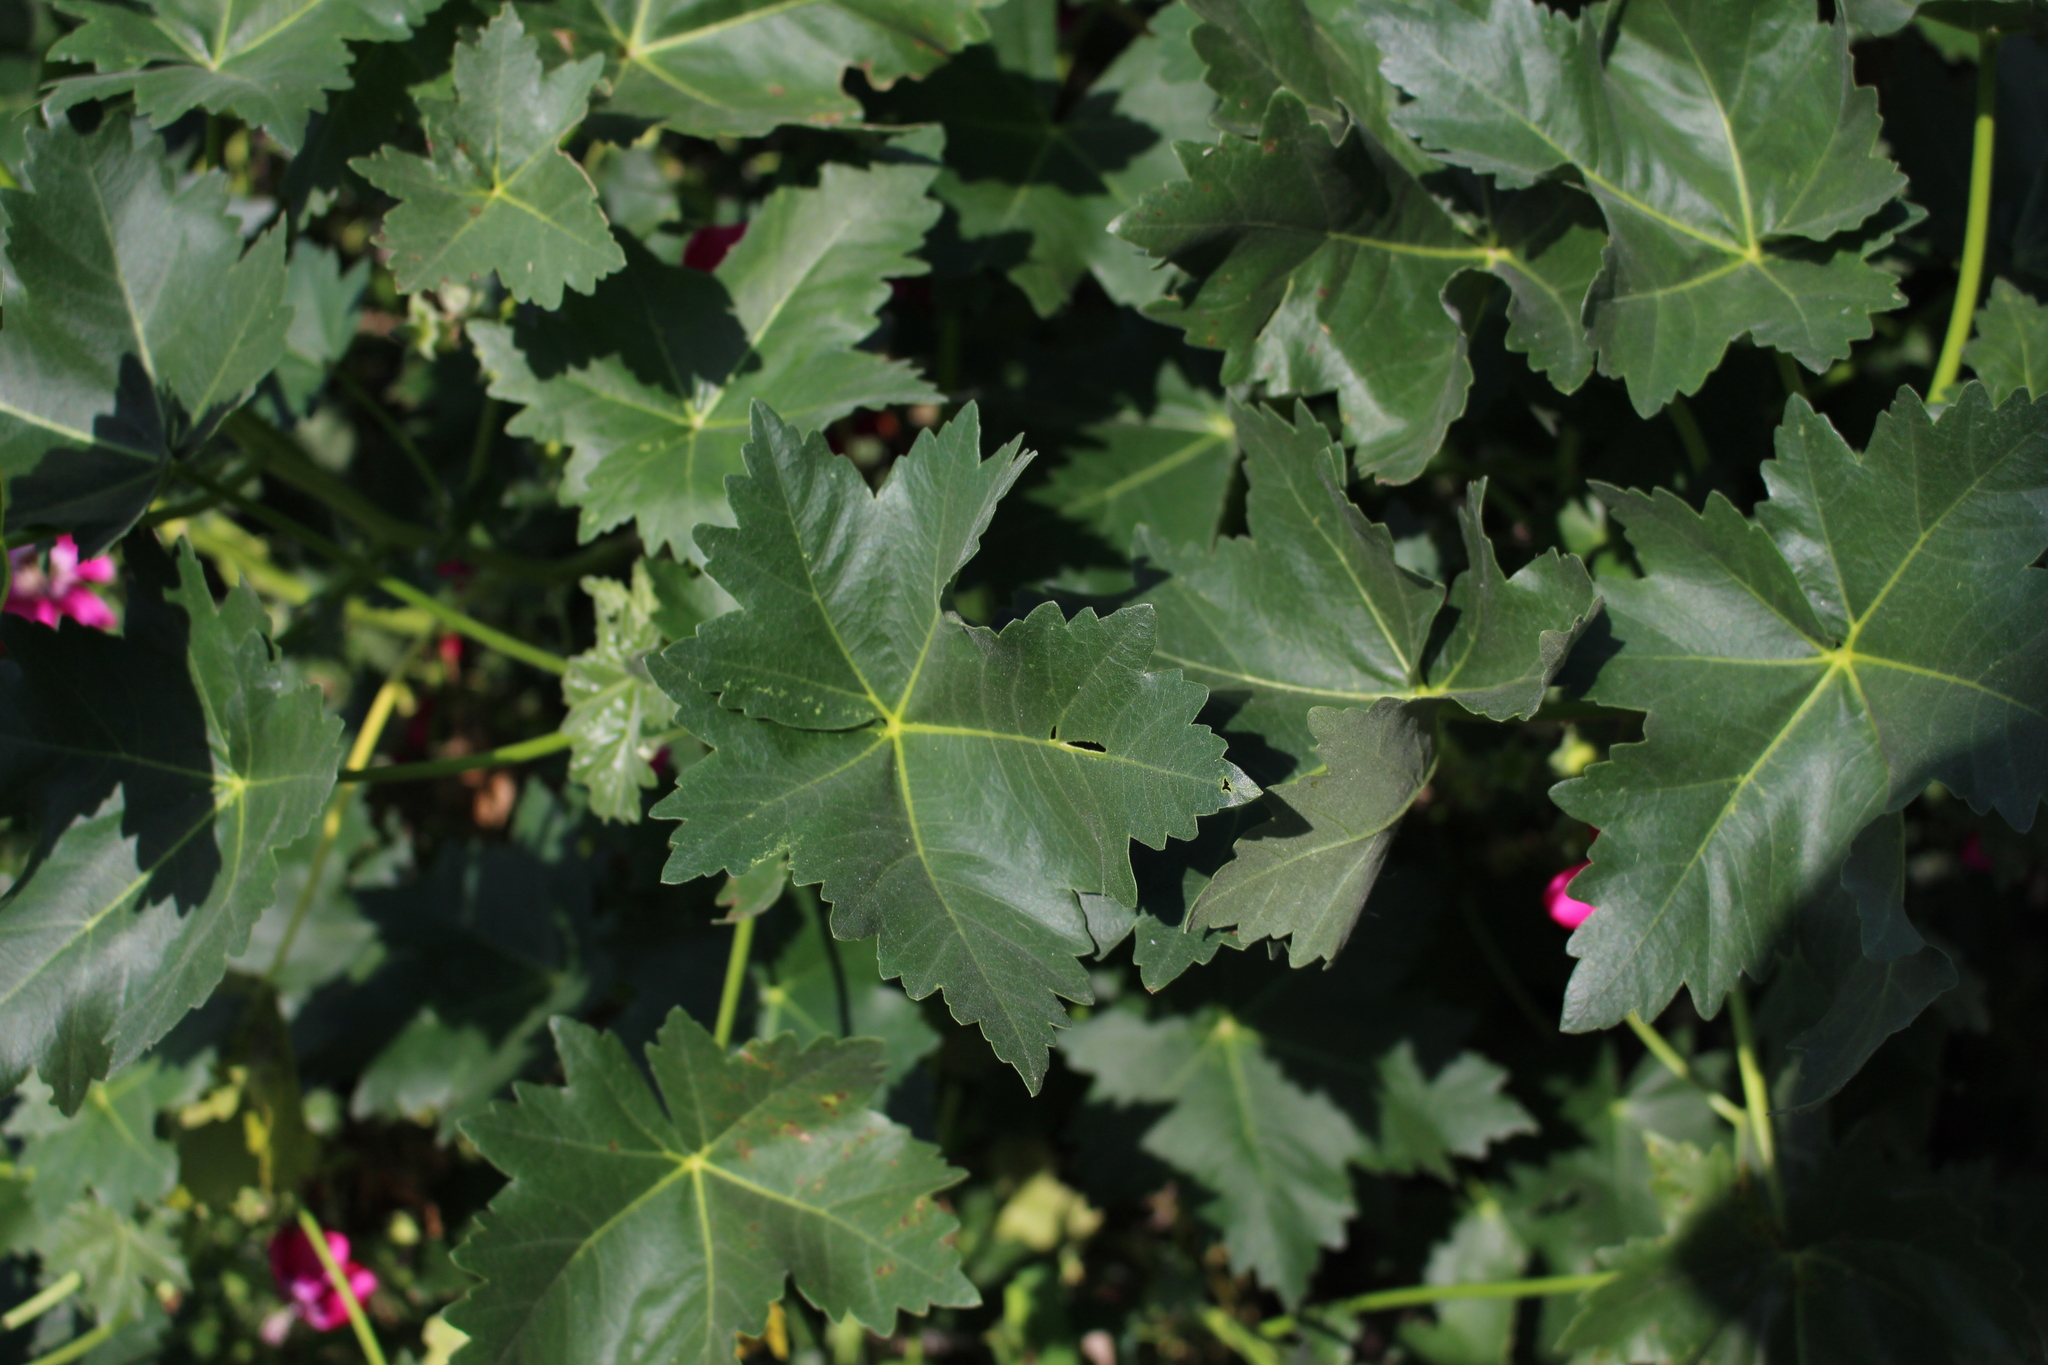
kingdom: Plantae
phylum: Tracheophyta
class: Magnoliopsida
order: Malvales
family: Malvaceae
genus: Malva
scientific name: Malva assurgentiflora
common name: Island mallow
